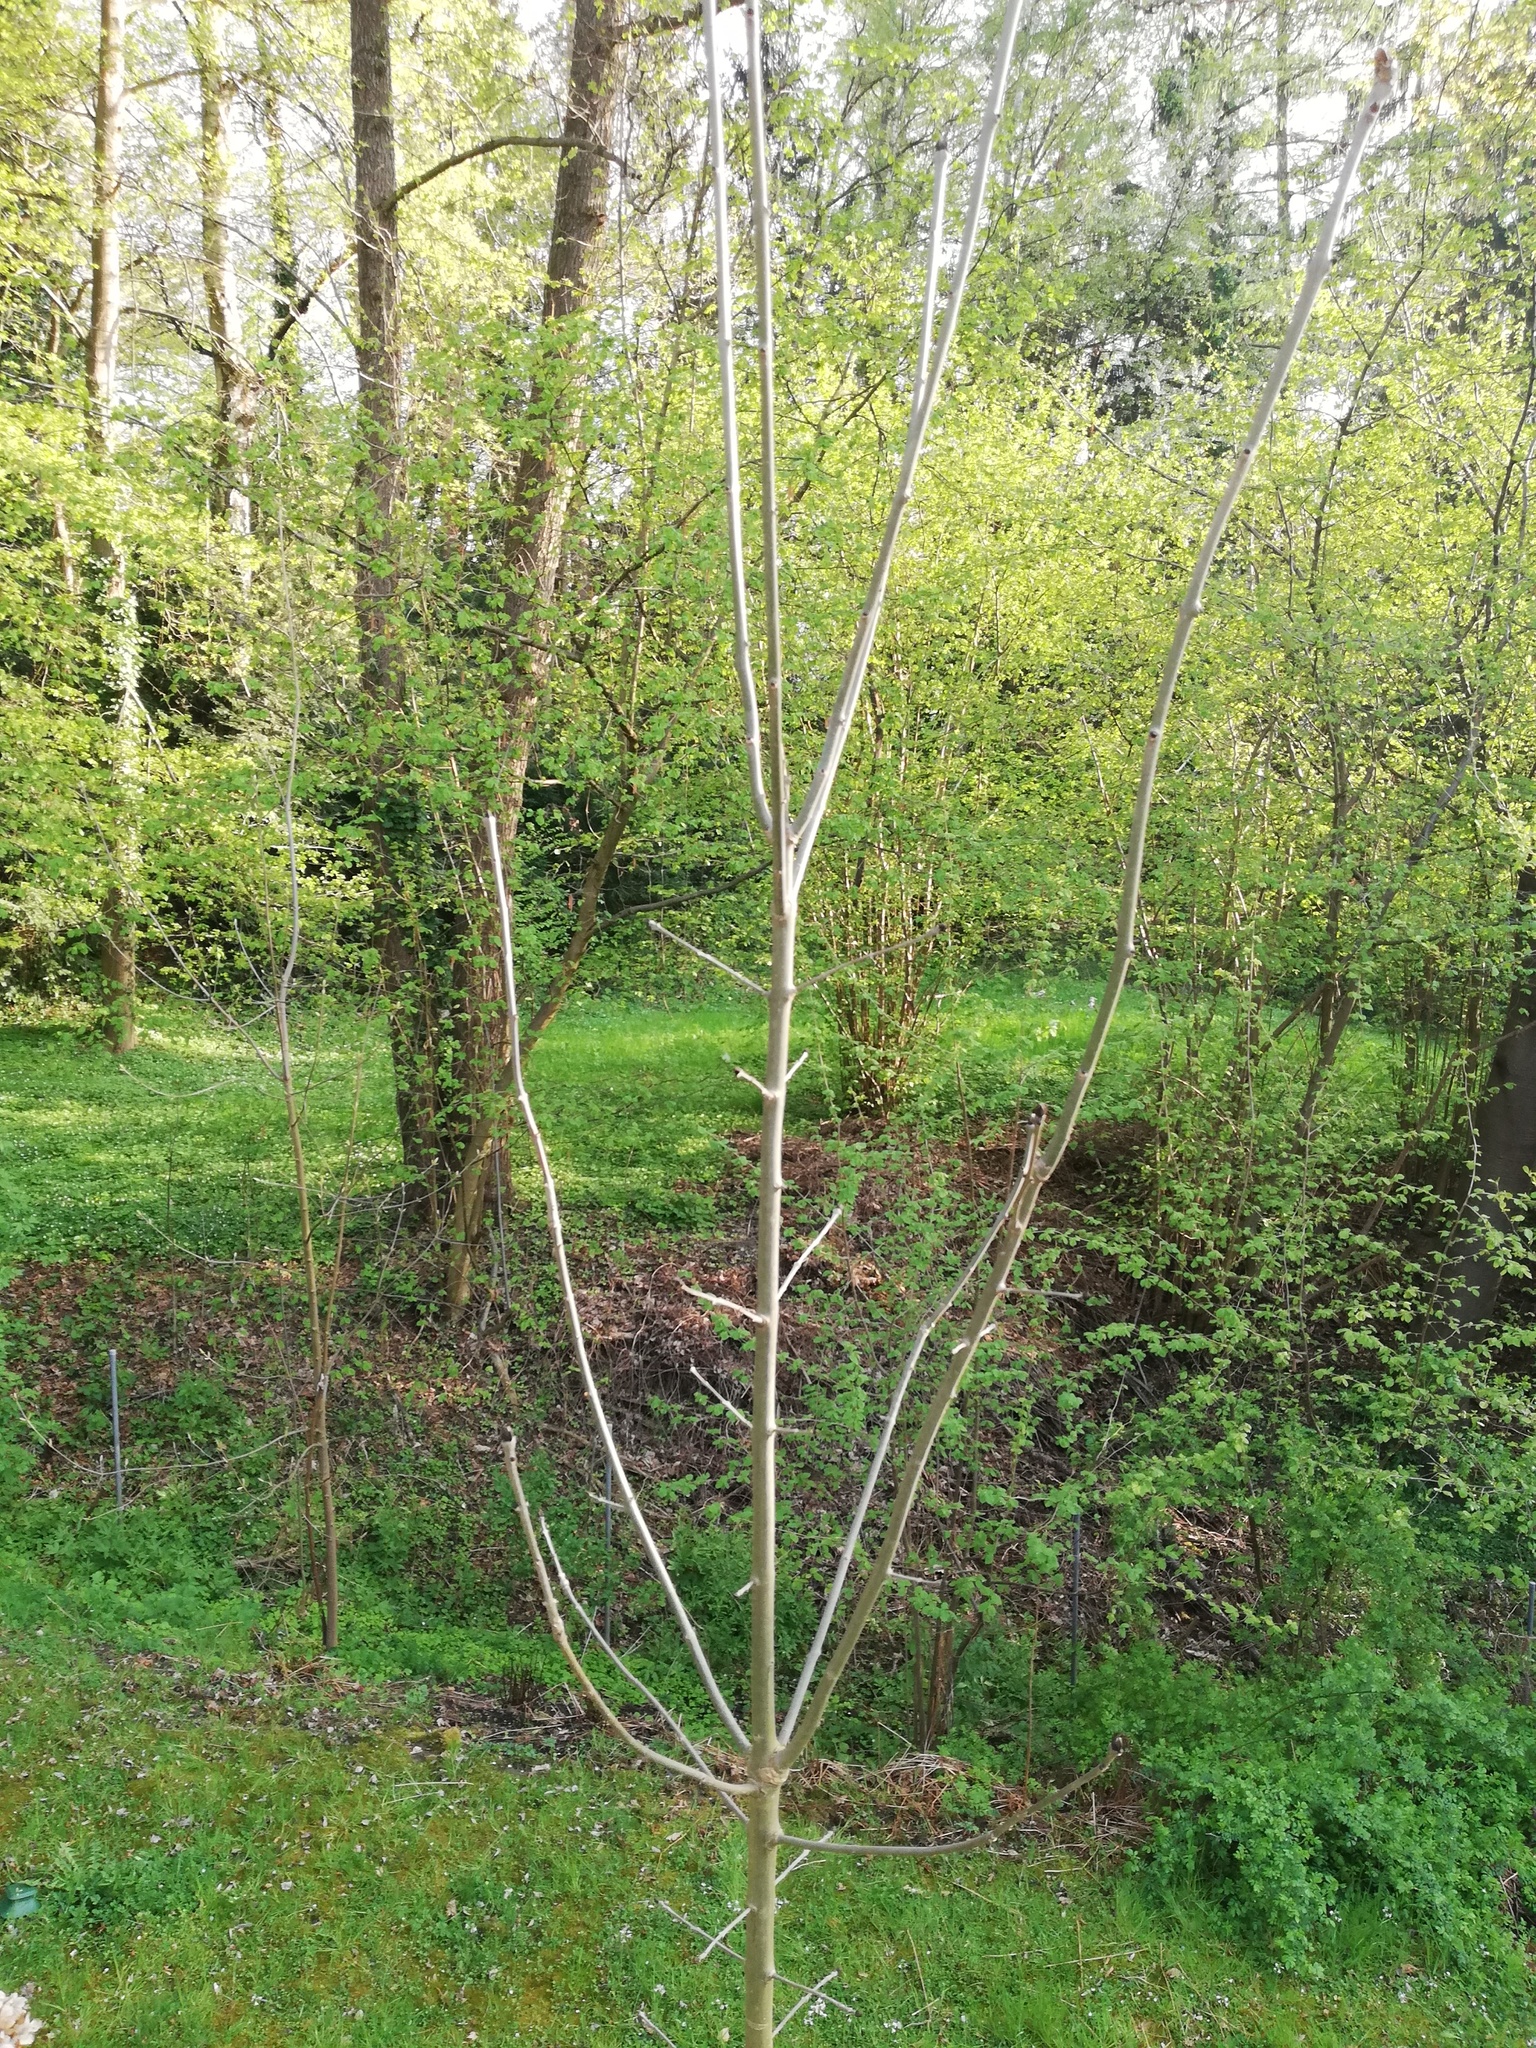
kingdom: Plantae
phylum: Tracheophyta
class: Magnoliopsida
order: Lamiales
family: Oleaceae
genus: Fraxinus
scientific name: Fraxinus excelsior
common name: European ash
